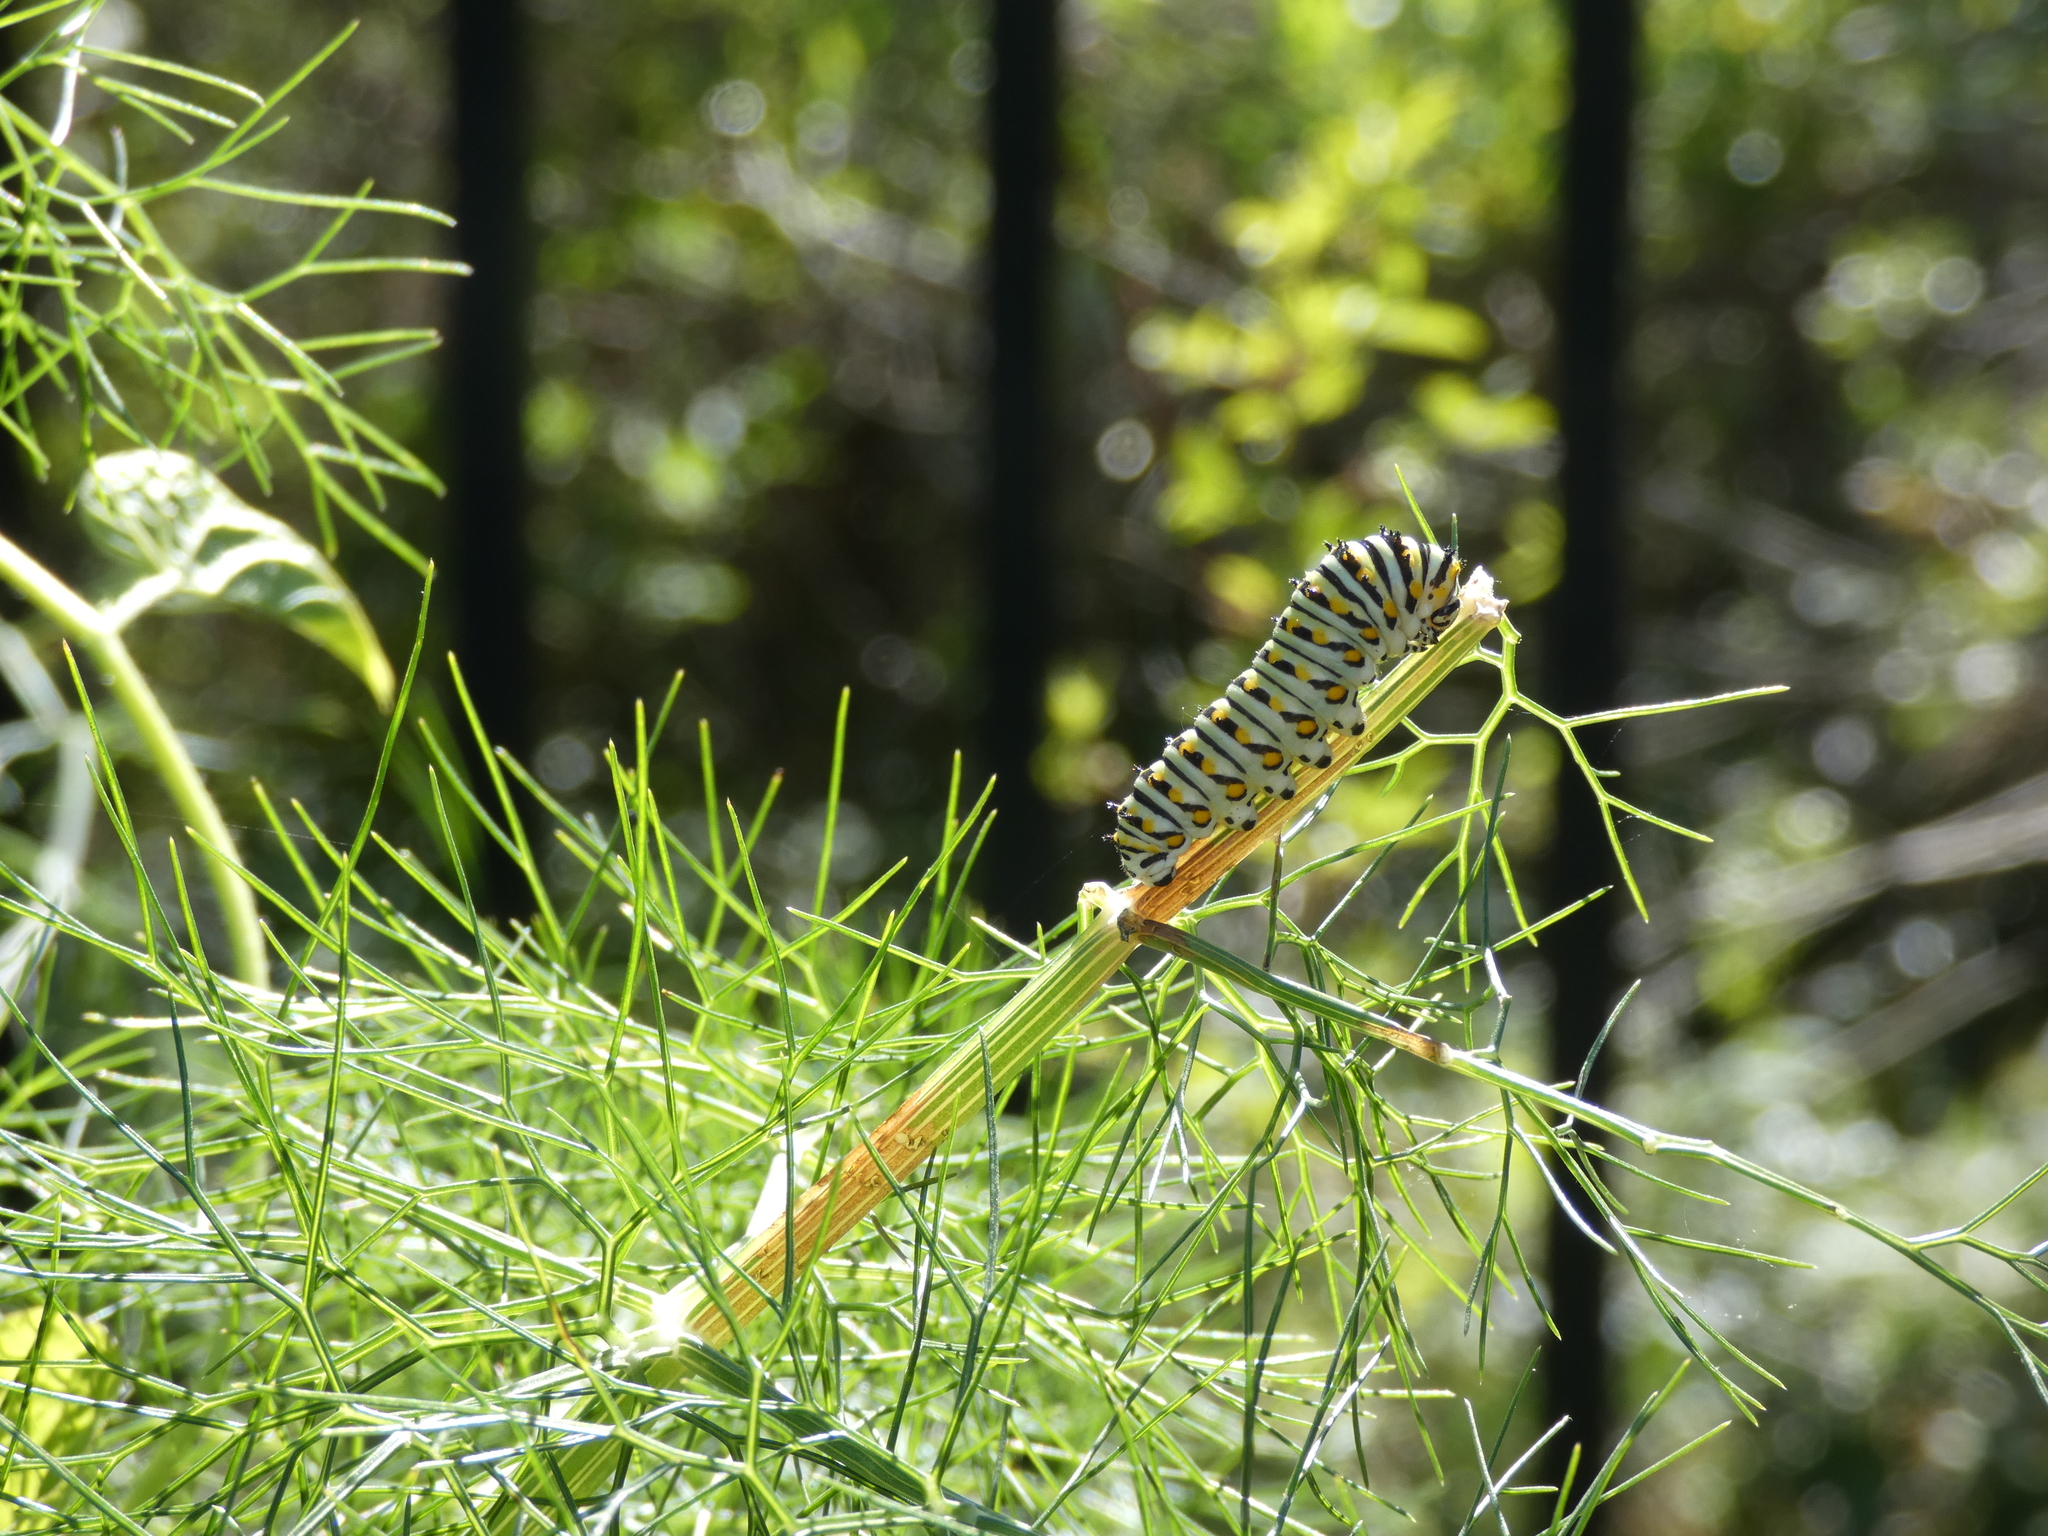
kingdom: Animalia
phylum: Arthropoda
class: Insecta
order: Lepidoptera
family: Papilionidae
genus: Papilio
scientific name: Papilio polyxenes
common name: Black swallowtail
